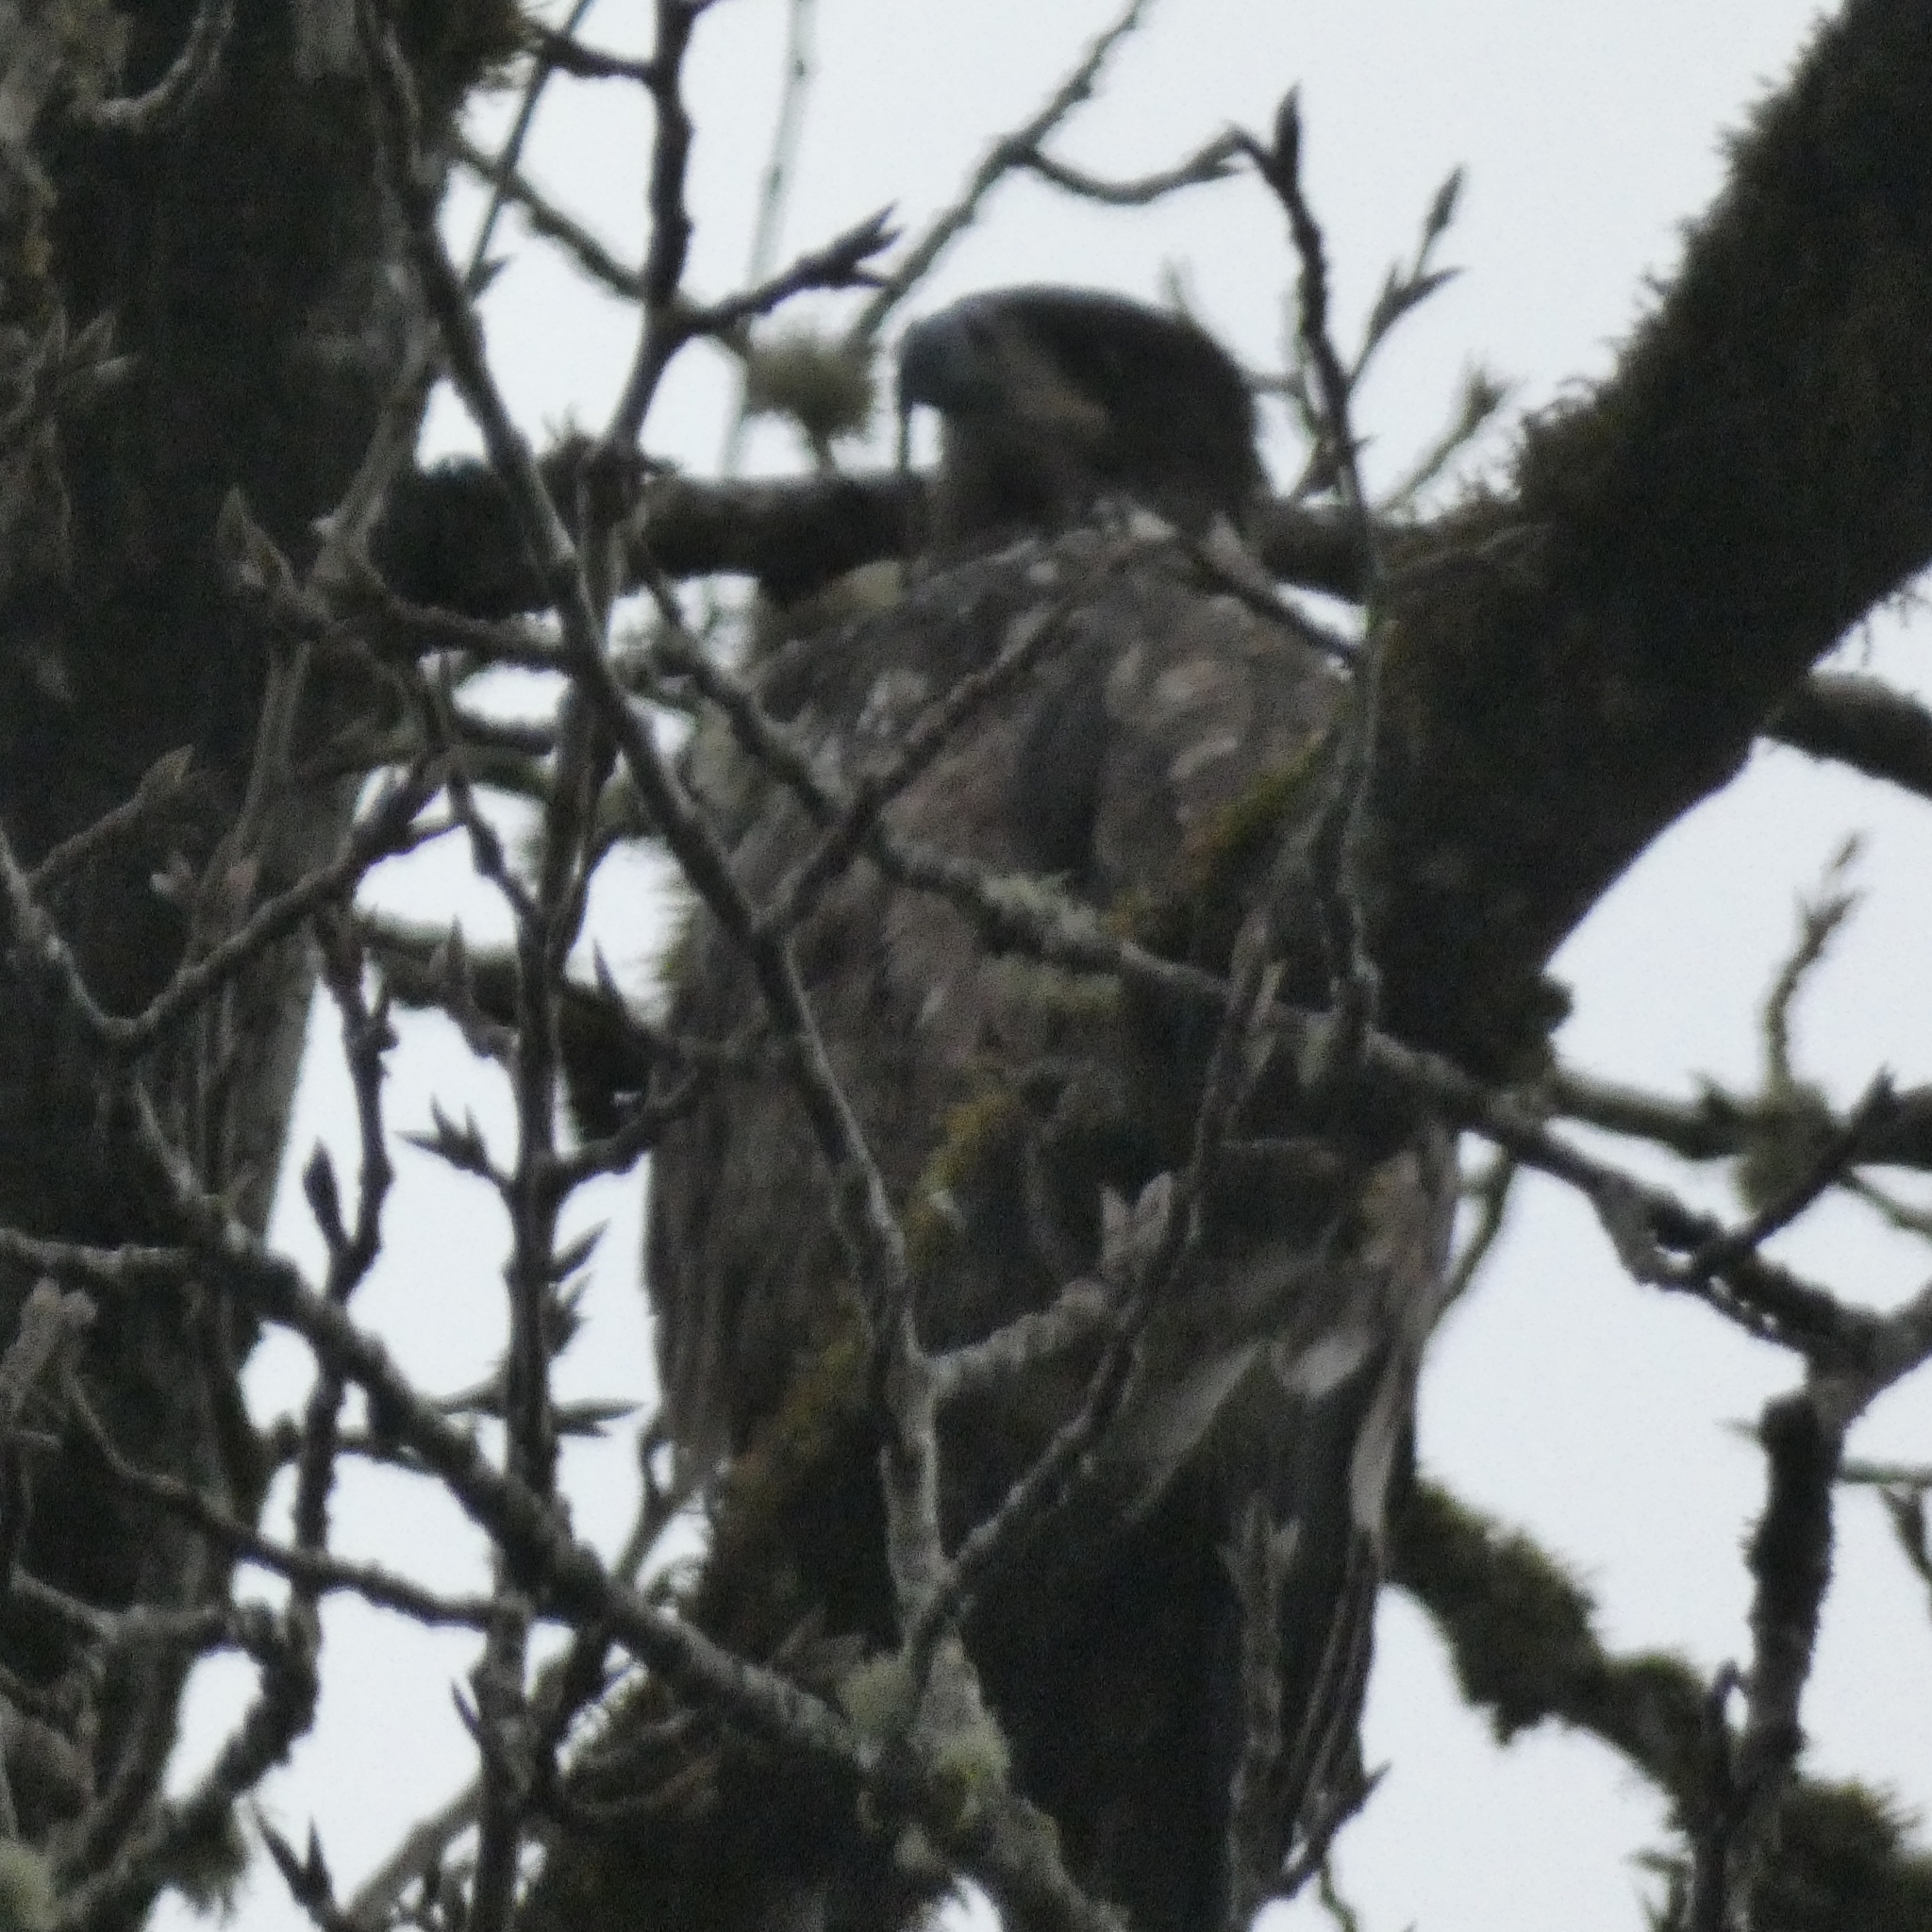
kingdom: Animalia
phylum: Chordata
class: Aves
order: Accipitriformes
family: Accipitridae
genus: Haliaeetus
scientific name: Haliaeetus leucocephalus
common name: Bald eagle
